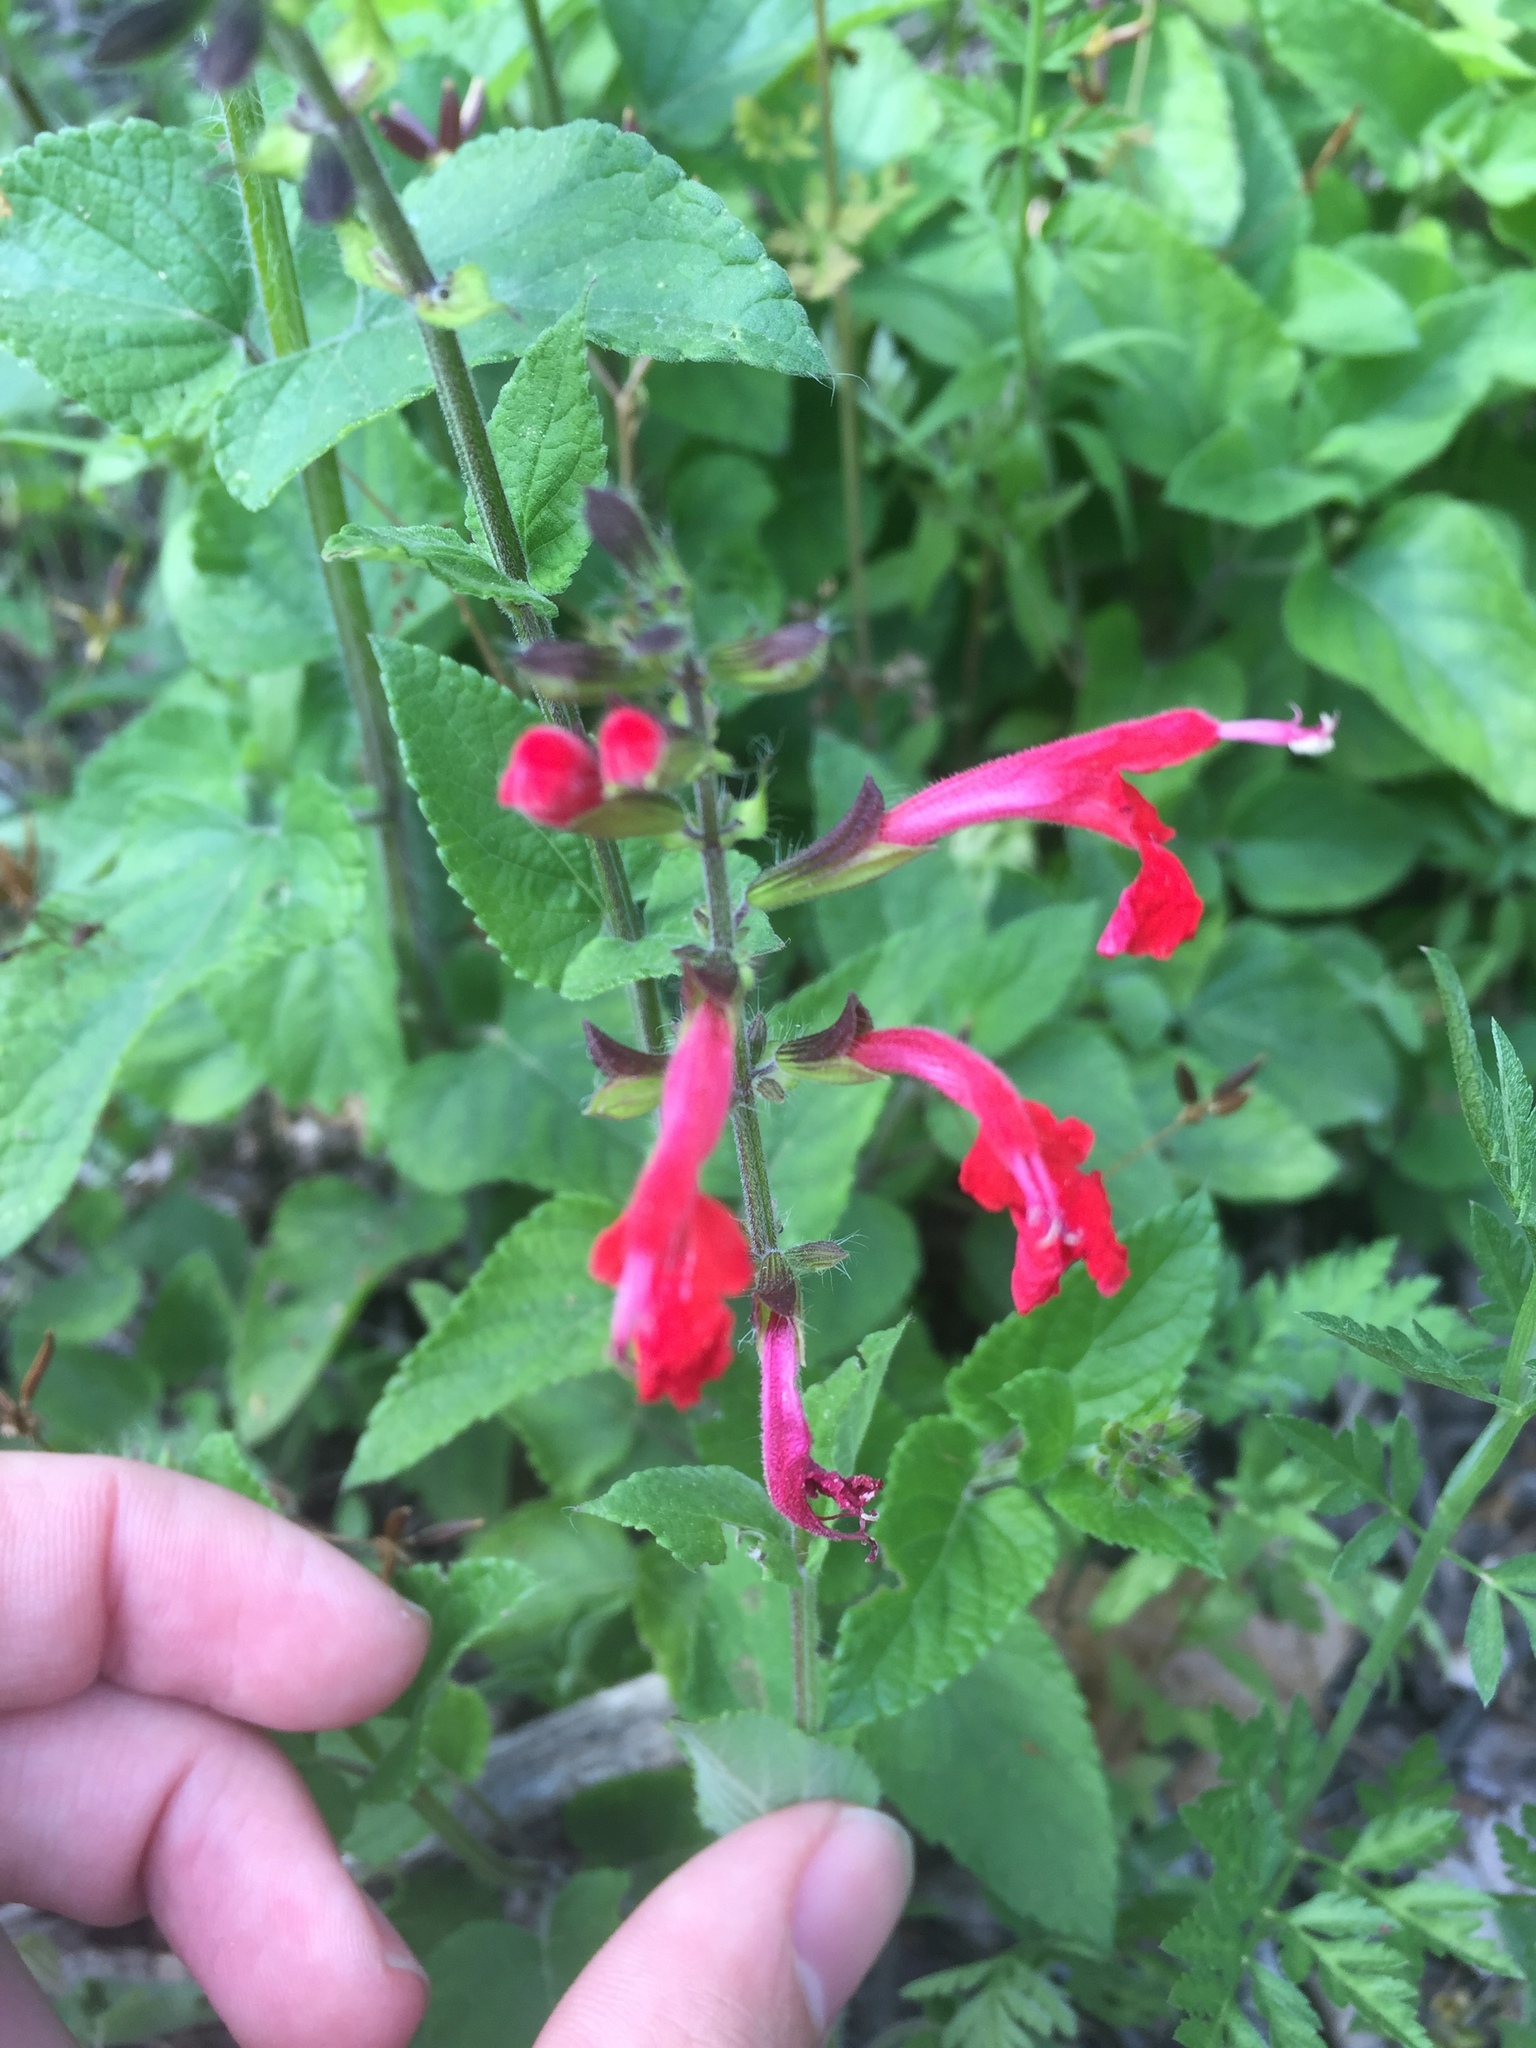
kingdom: Plantae
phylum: Tracheophyta
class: Magnoliopsida
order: Lamiales
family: Lamiaceae
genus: Salvia
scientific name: Salvia coccinea
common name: Blood sage
